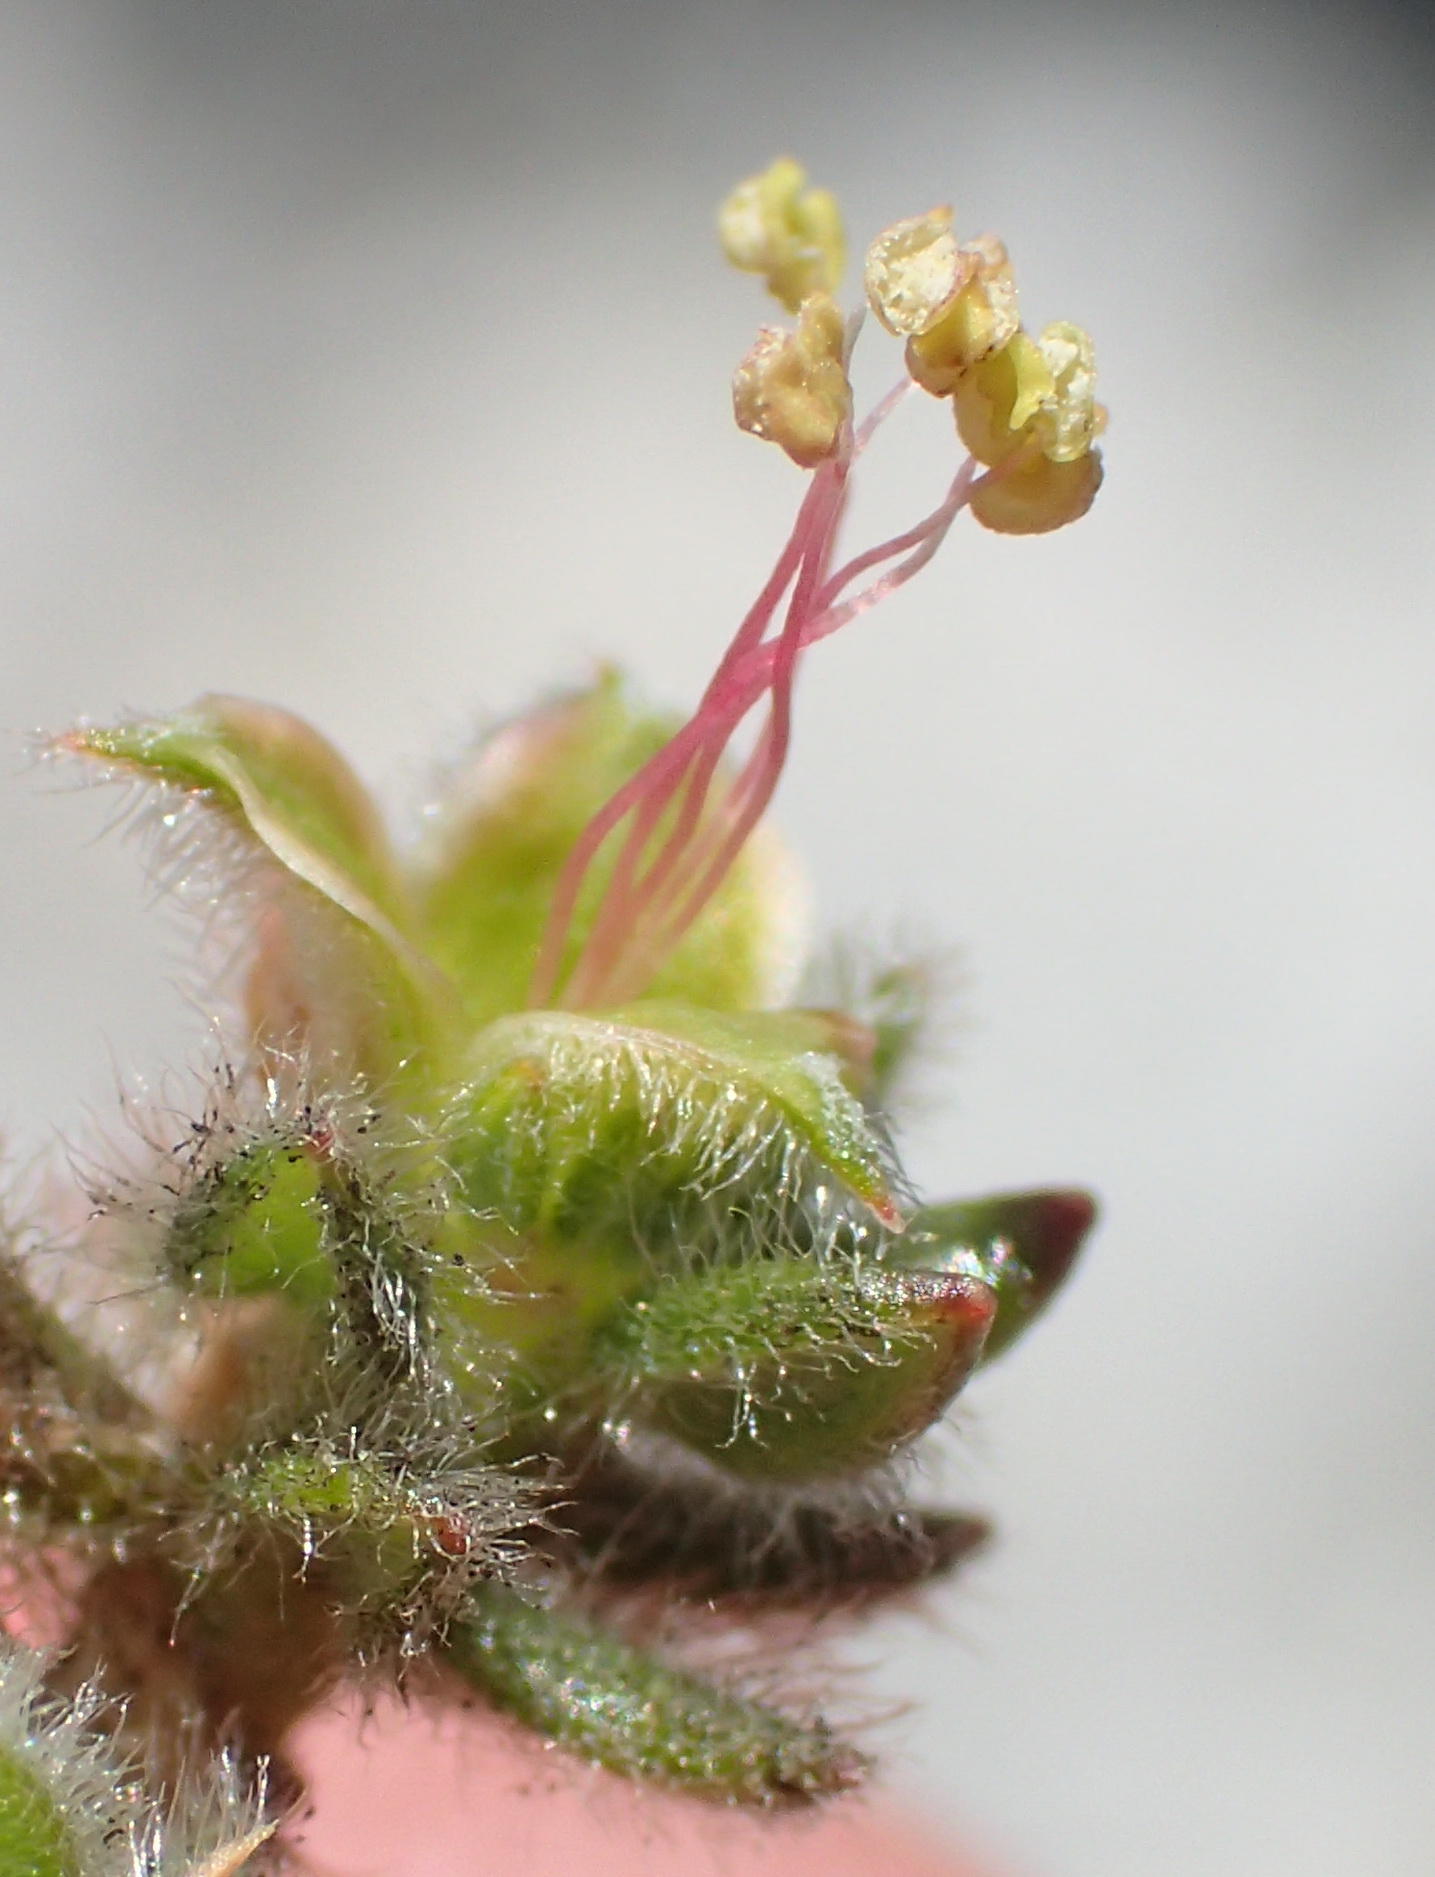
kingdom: Plantae
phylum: Tracheophyta
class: Magnoliopsida
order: Rosales
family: Rosaceae
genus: Cliffortia
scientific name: Cliffortia eriocephalina
